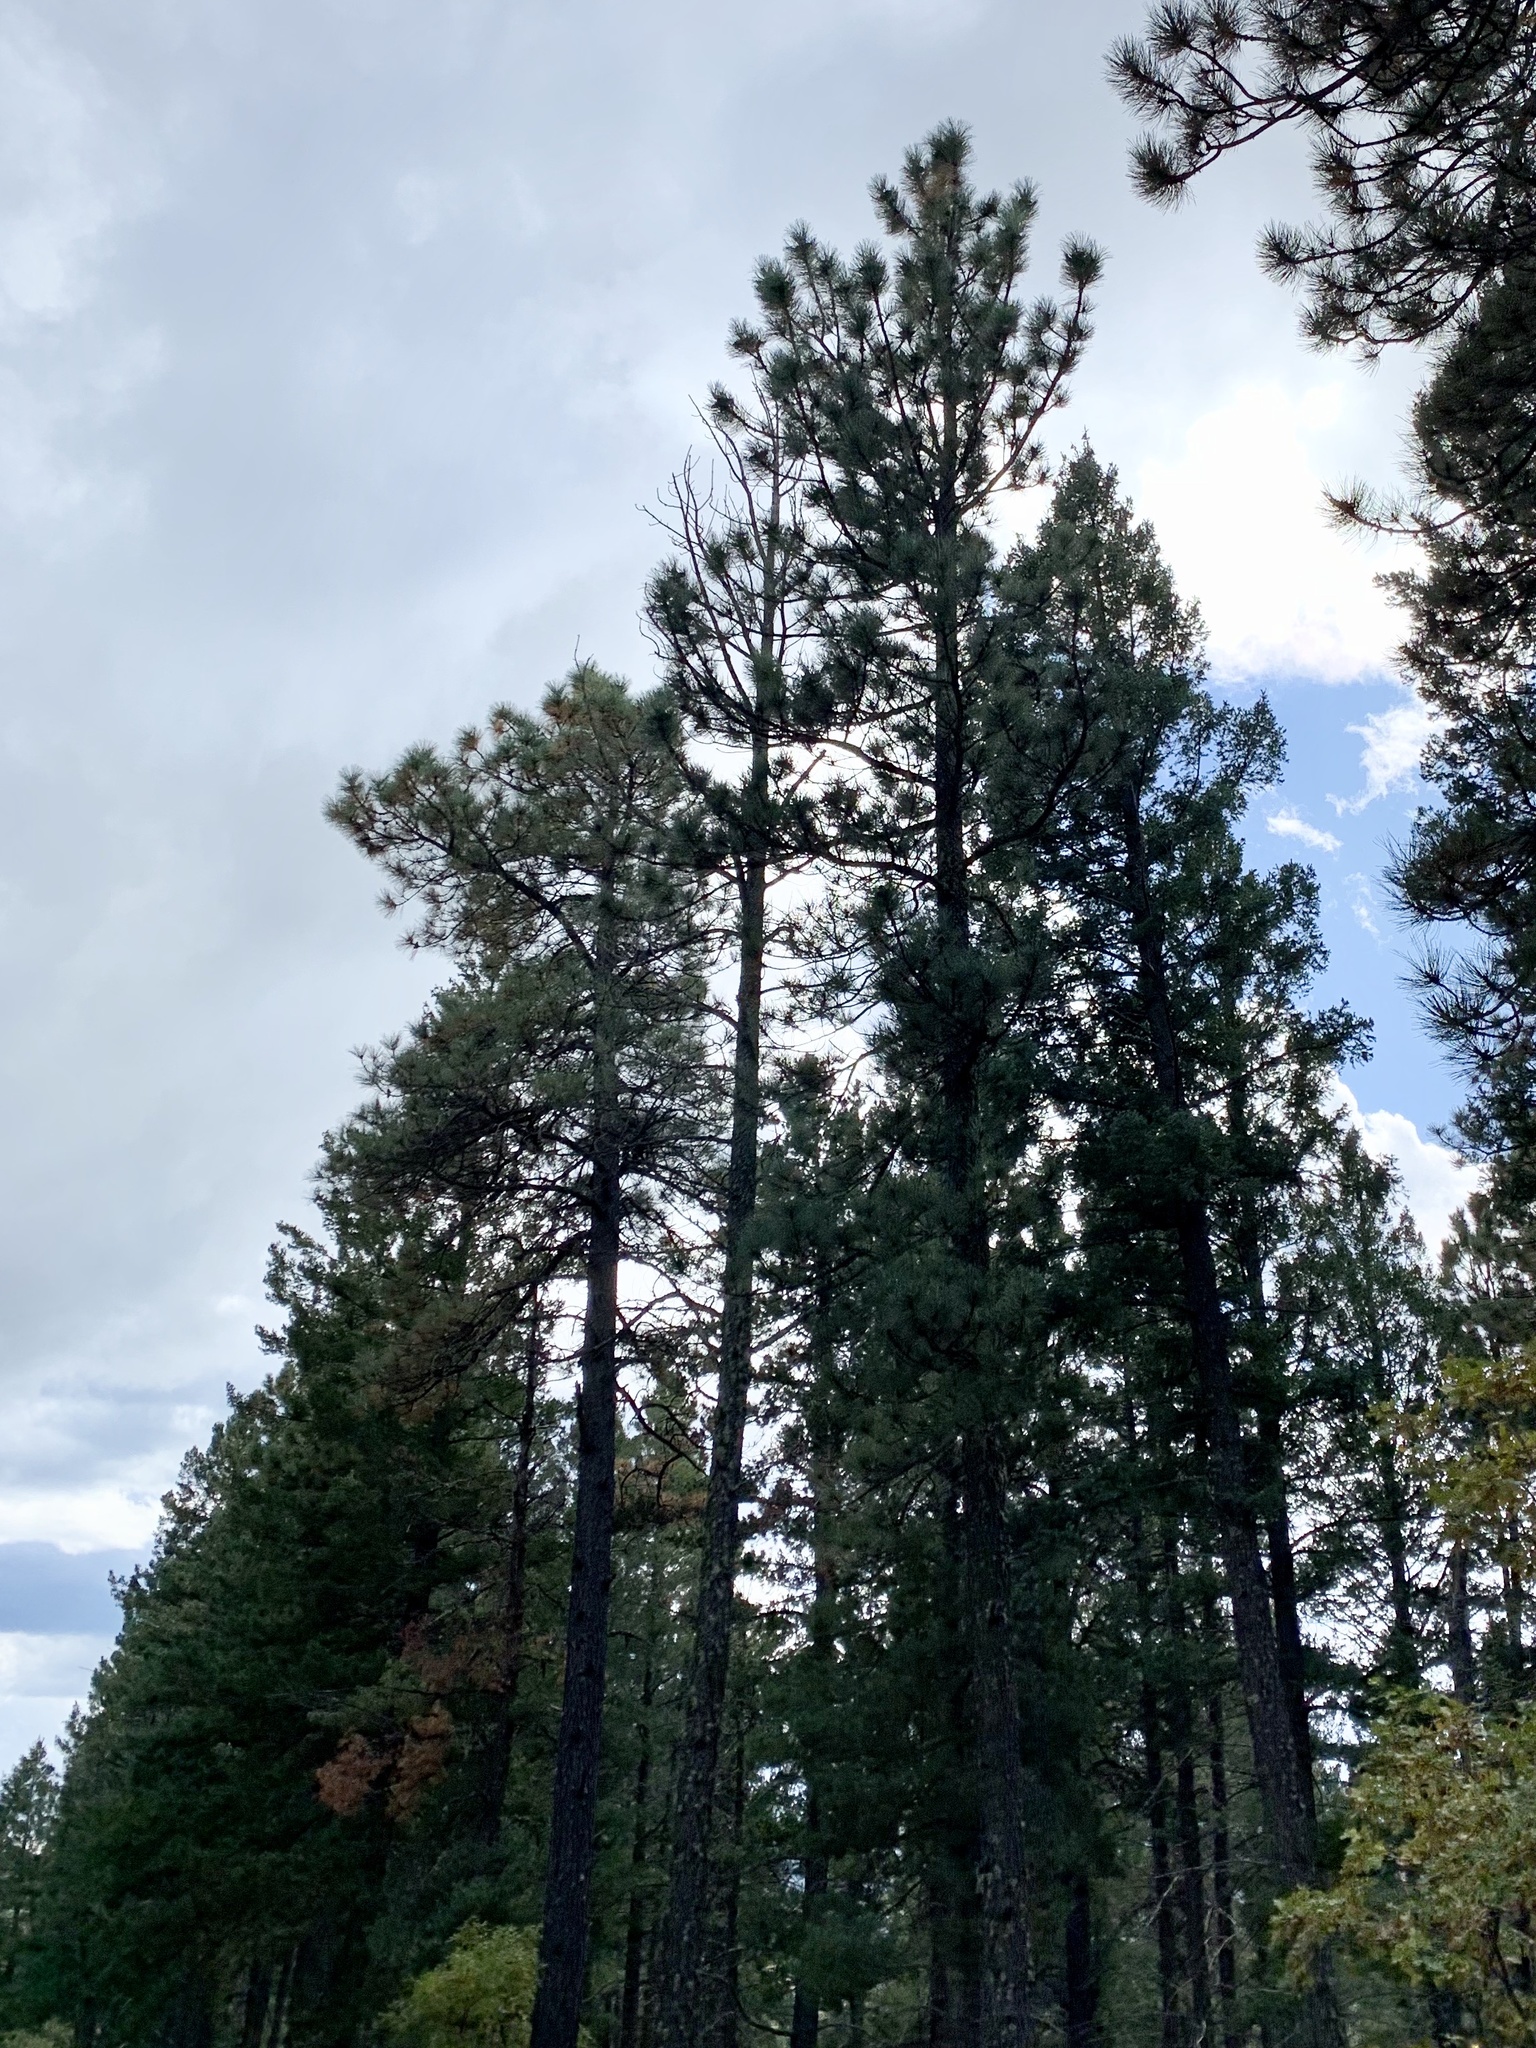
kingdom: Plantae
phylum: Tracheophyta
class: Pinopsida
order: Pinales
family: Pinaceae
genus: Pinus
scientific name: Pinus ponderosa
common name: Western yellow-pine
